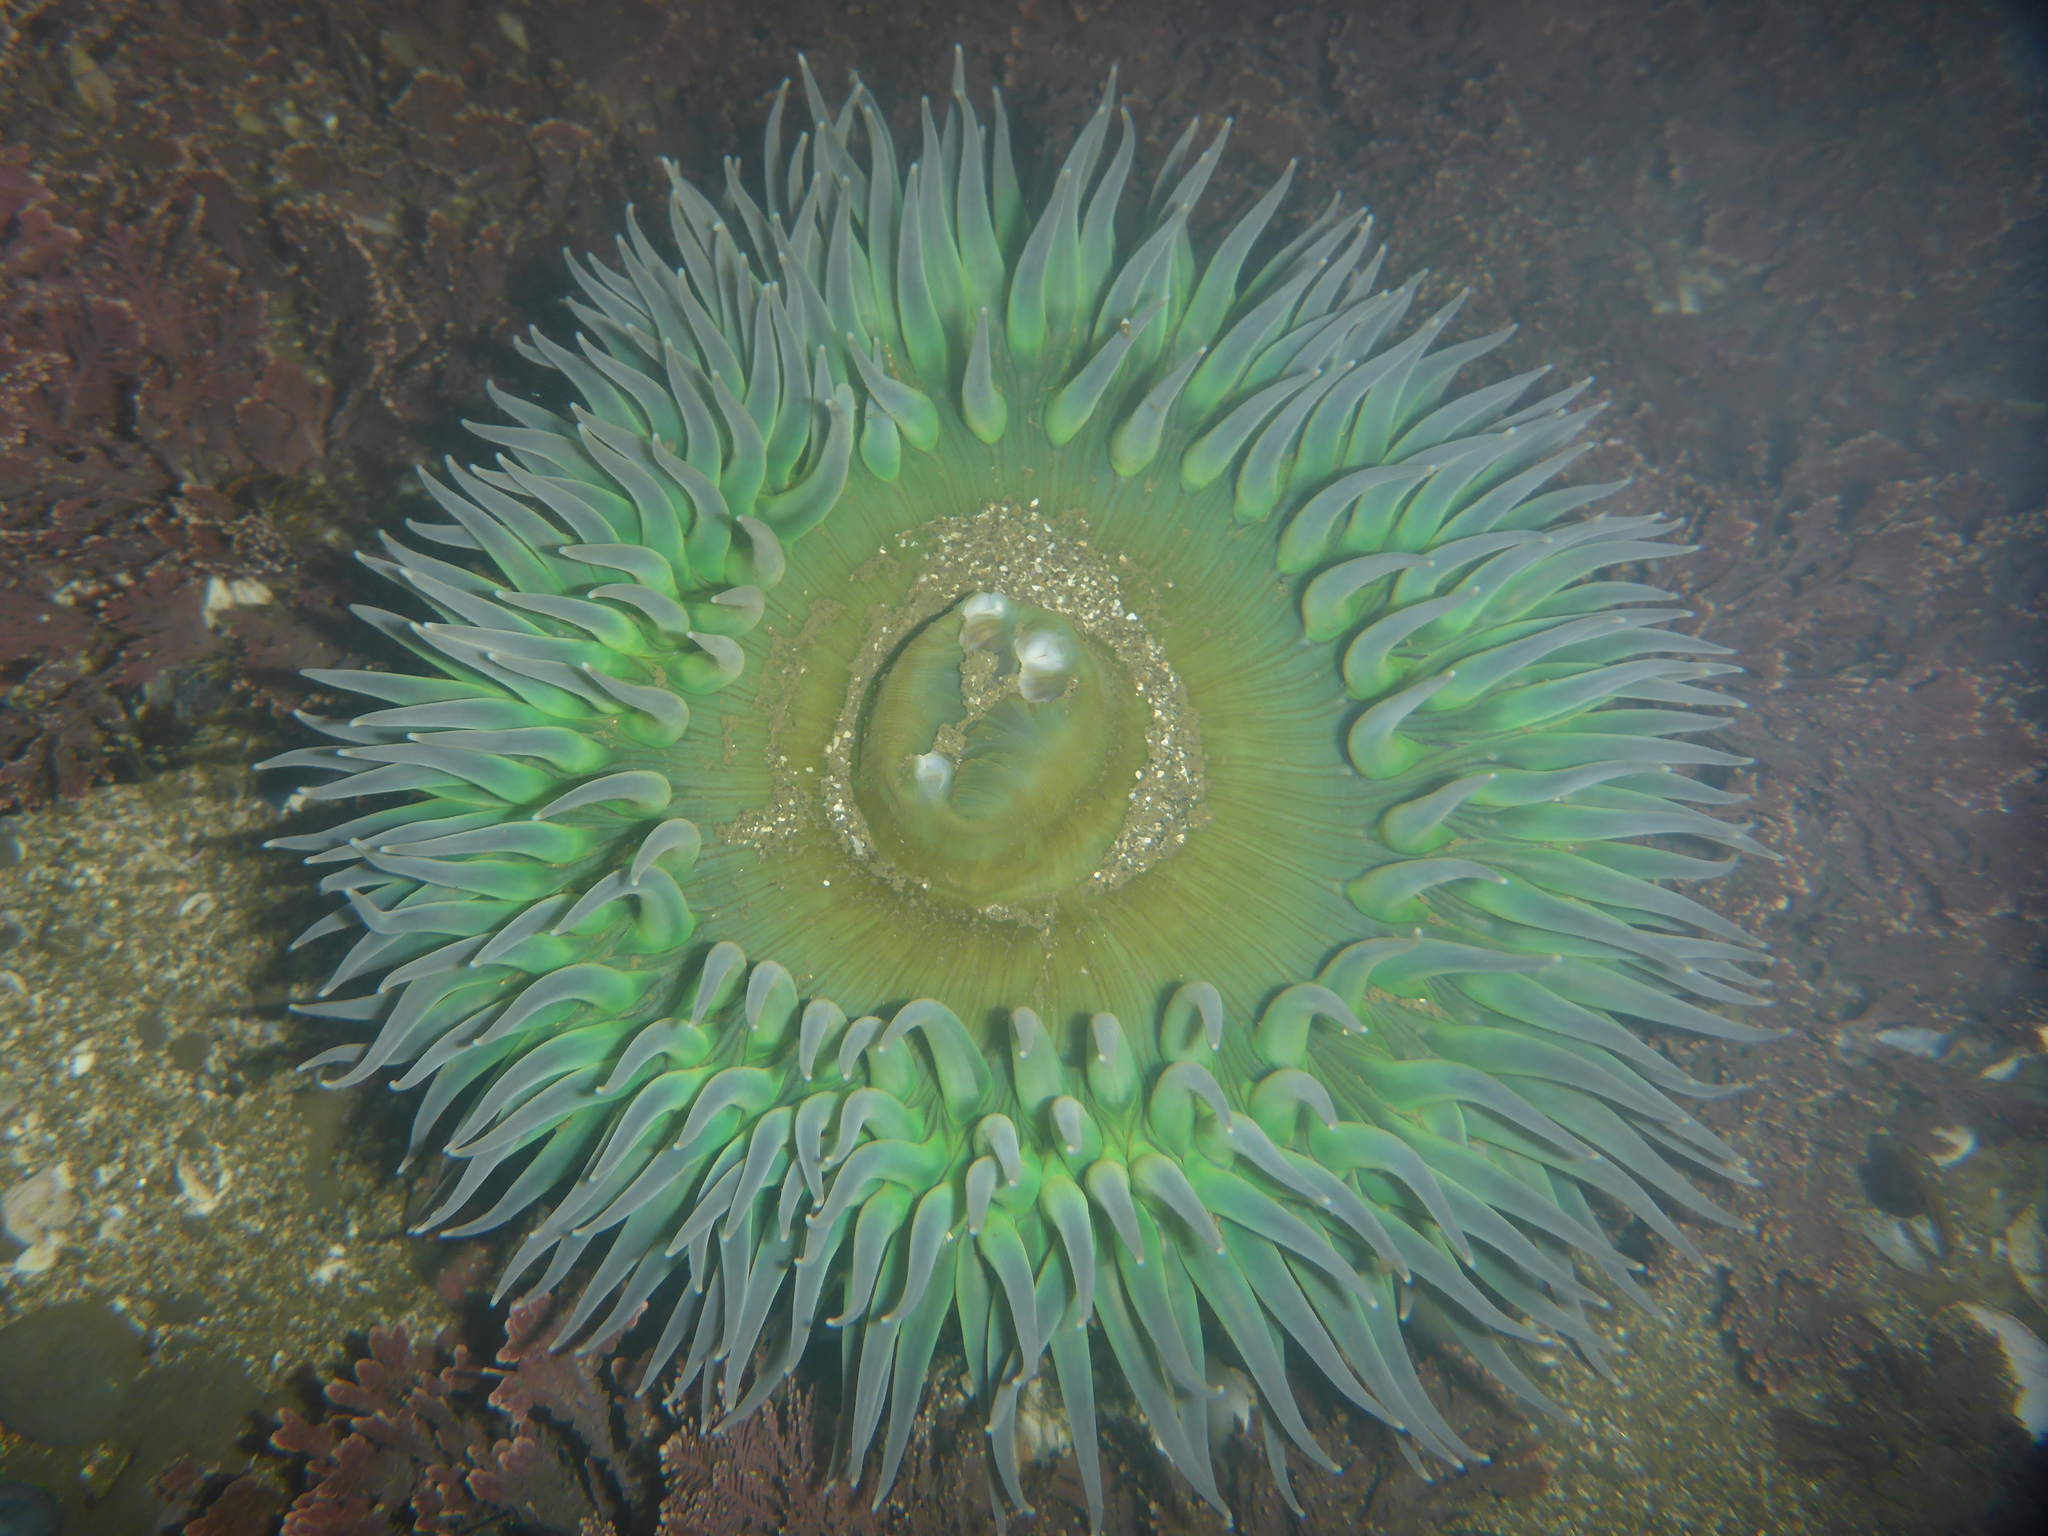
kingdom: Animalia
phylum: Cnidaria
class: Anthozoa
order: Actiniaria
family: Actiniidae
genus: Anthopleura
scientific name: Anthopleura xanthogrammica
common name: Giant green anemone
